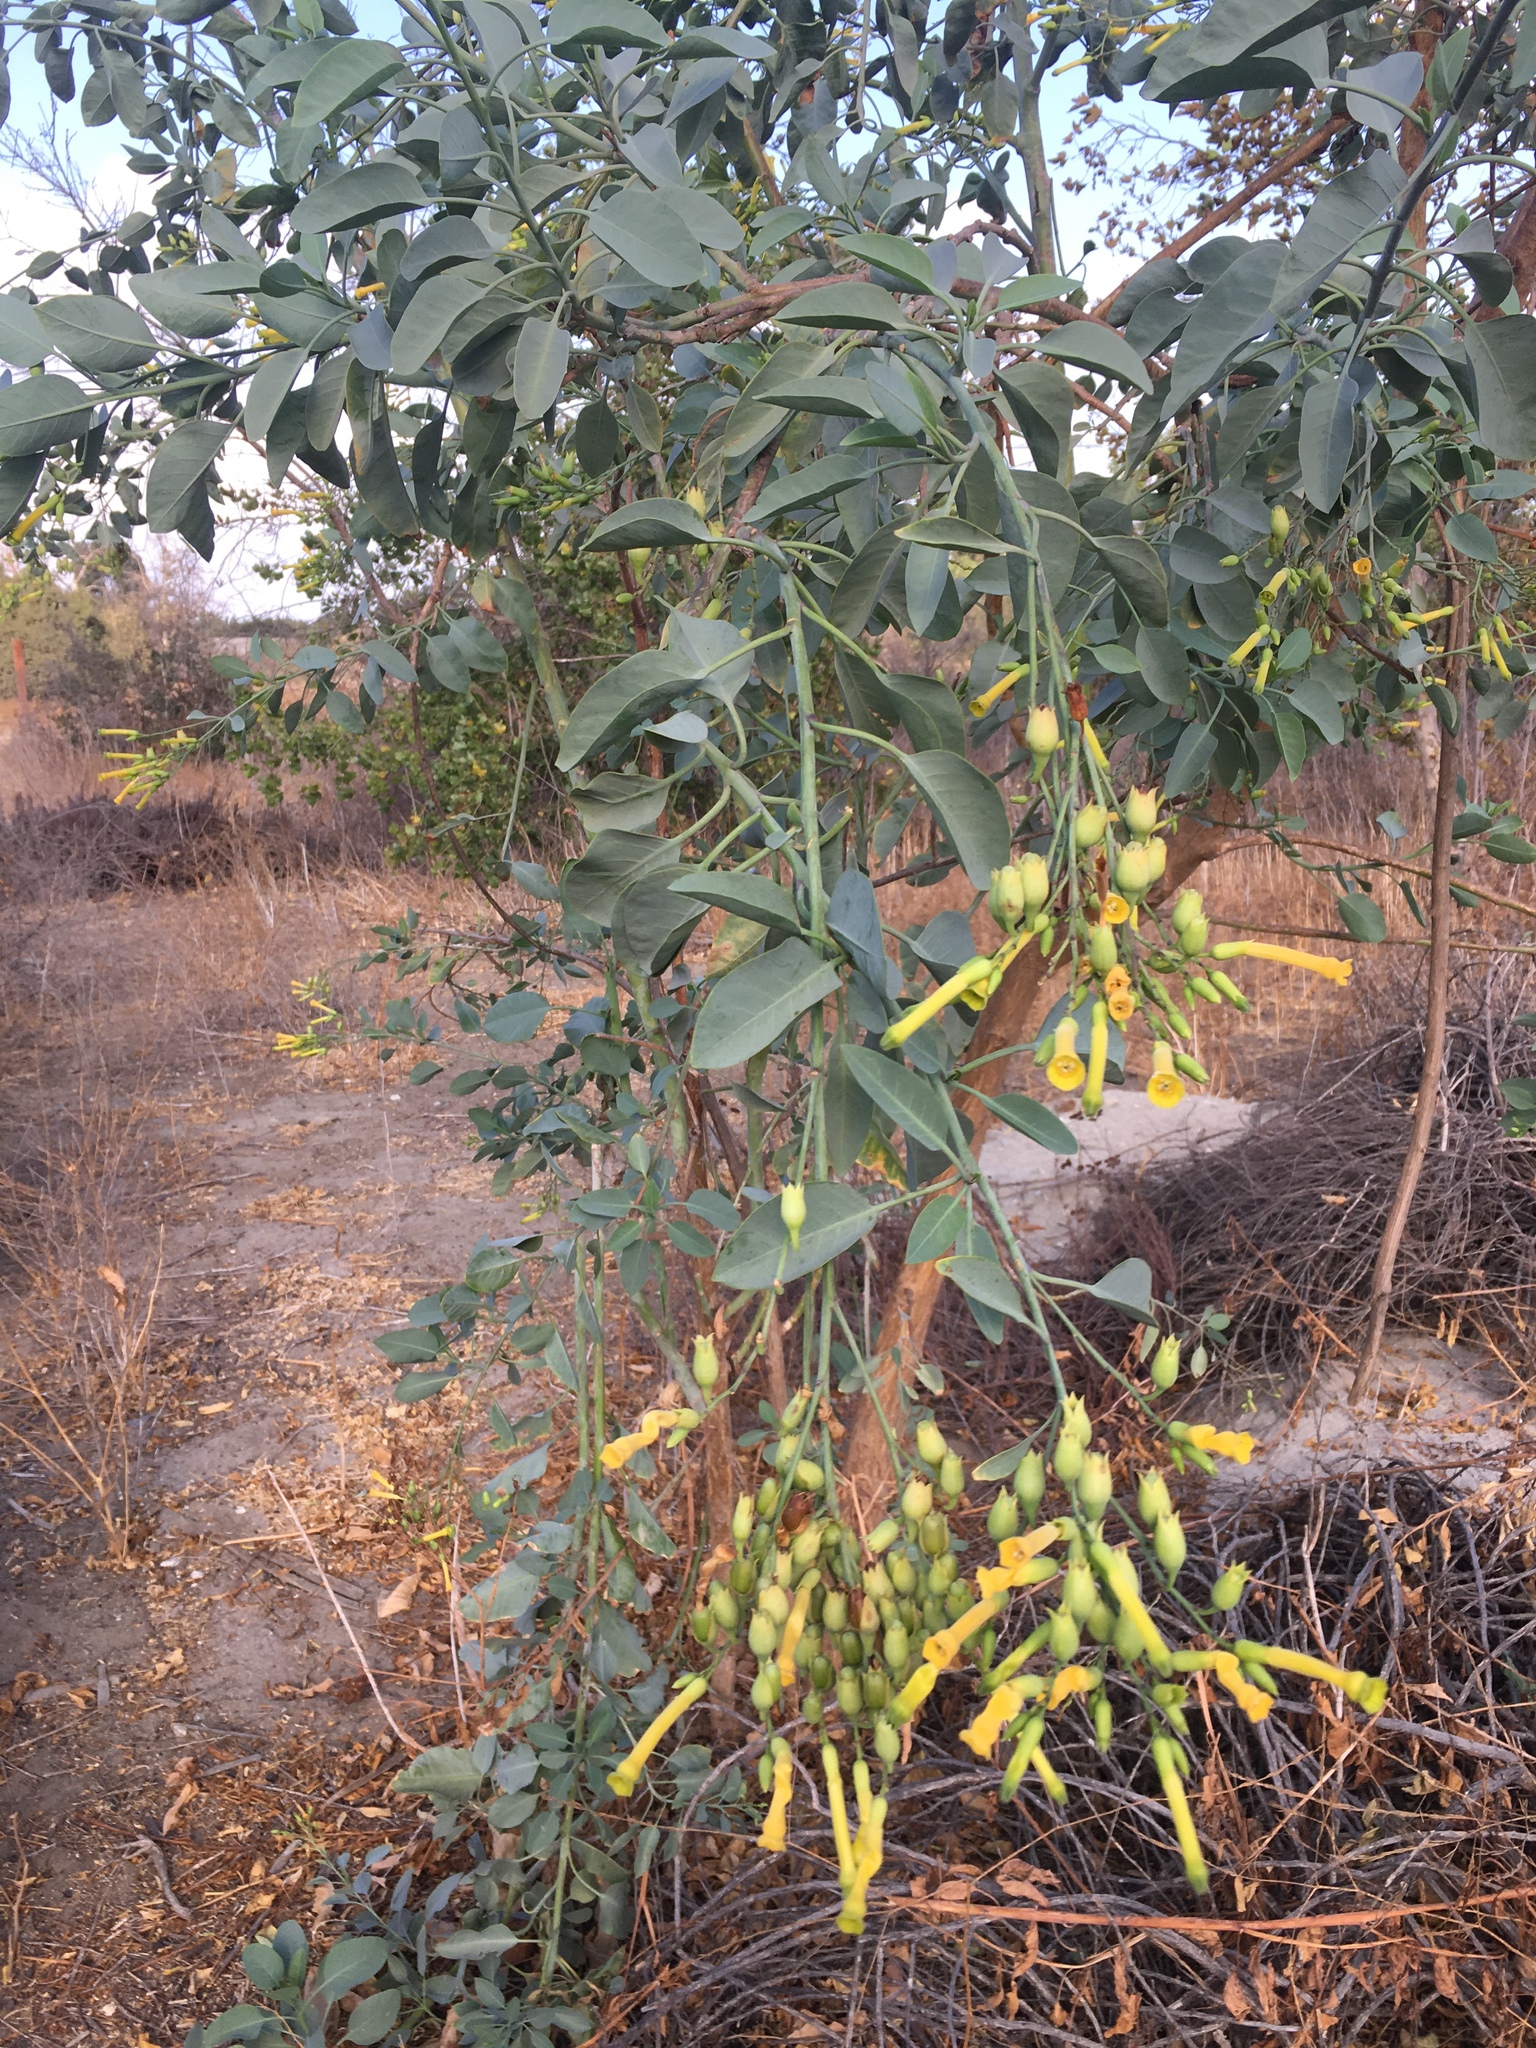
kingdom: Plantae
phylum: Tracheophyta
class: Magnoliopsida
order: Solanales
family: Solanaceae
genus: Nicotiana
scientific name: Nicotiana glauca
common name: Tree tobacco
